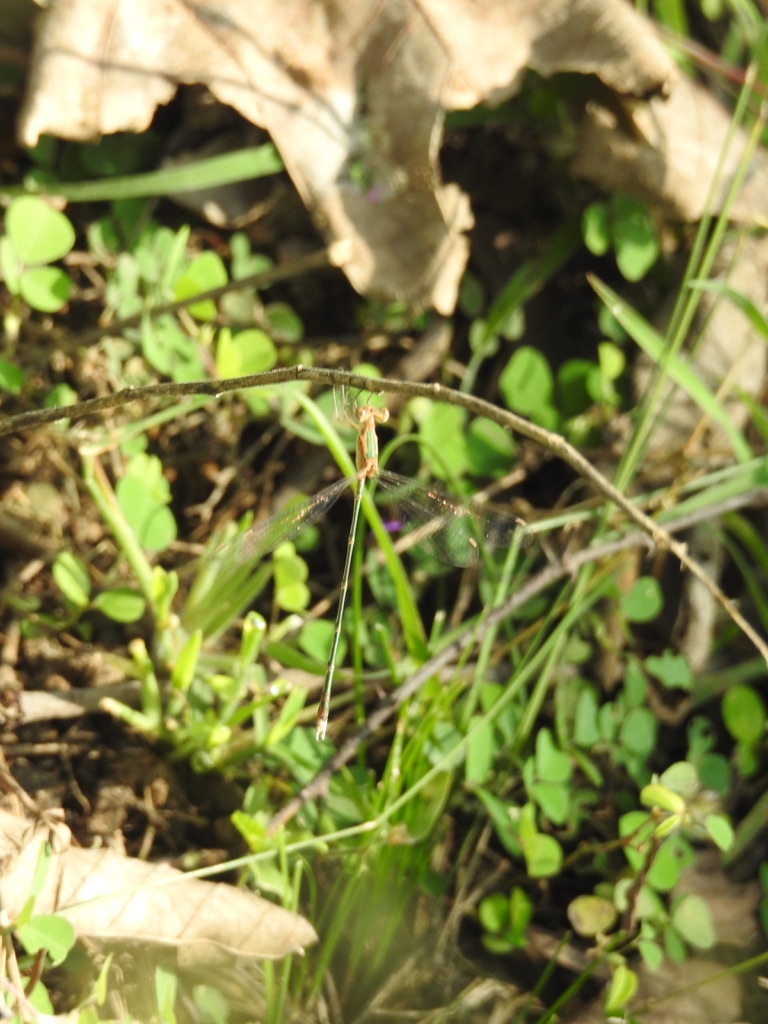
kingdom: Animalia
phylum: Arthropoda
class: Insecta
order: Odonata
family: Lestidae
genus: Lestes
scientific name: Lestes elatus
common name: Emerald spreadwing
